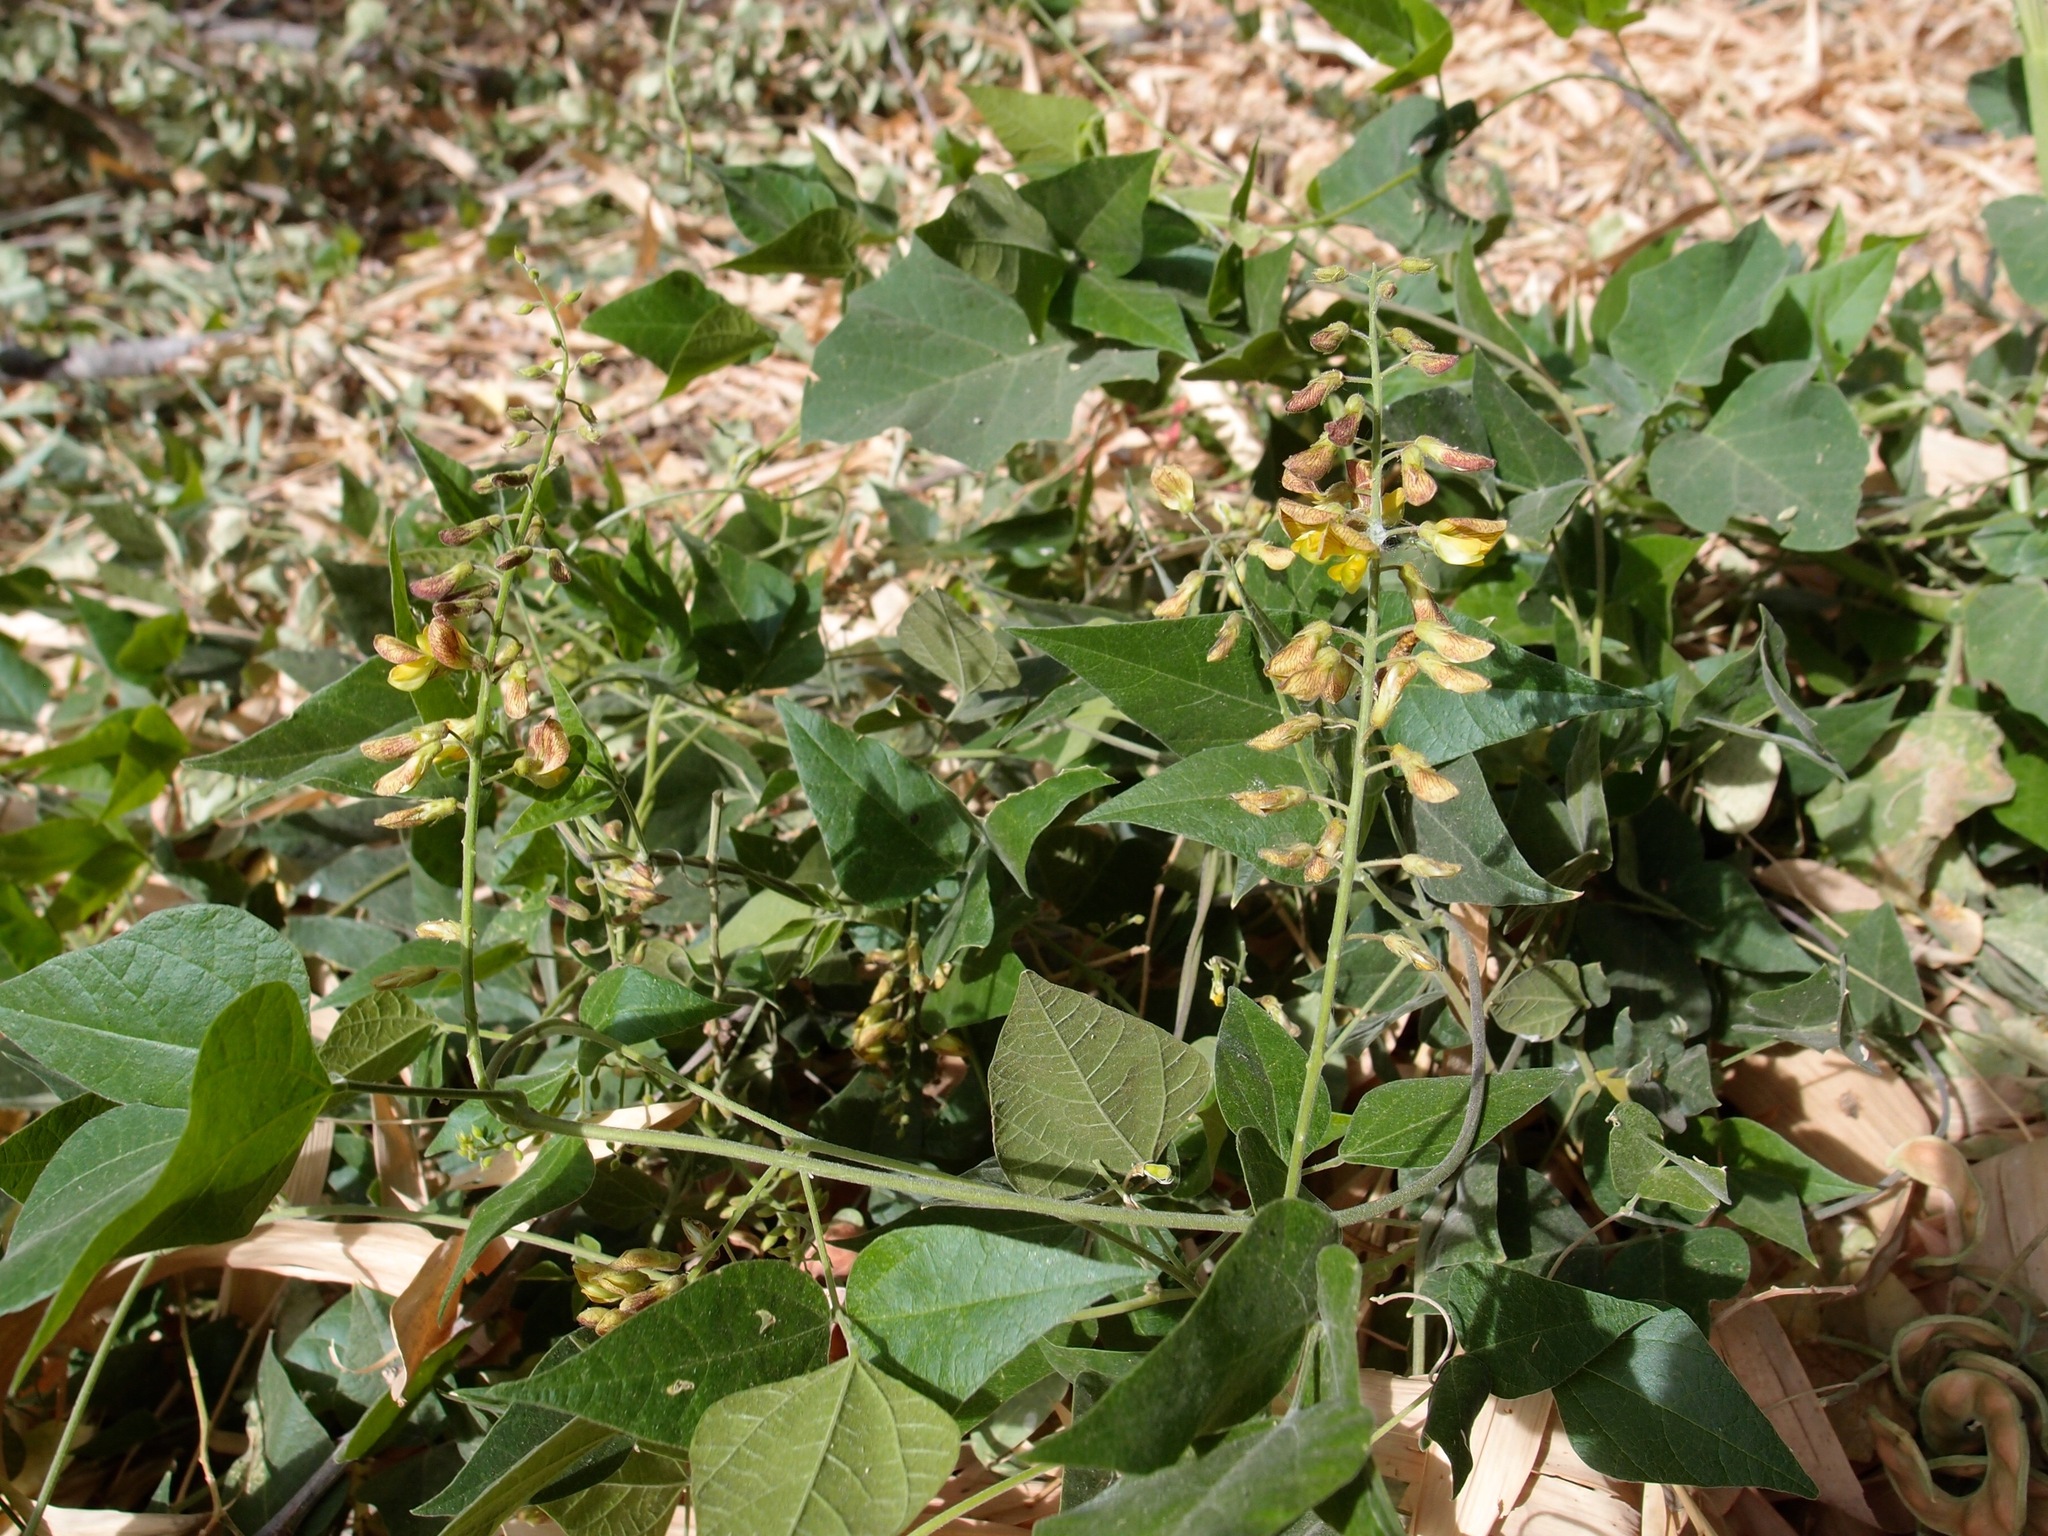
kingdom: Plantae
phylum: Tracheophyta
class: Magnoliopsida
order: Fabales
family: Fabaceae
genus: Rhynchosia
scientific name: Rhynchosia precatoria
